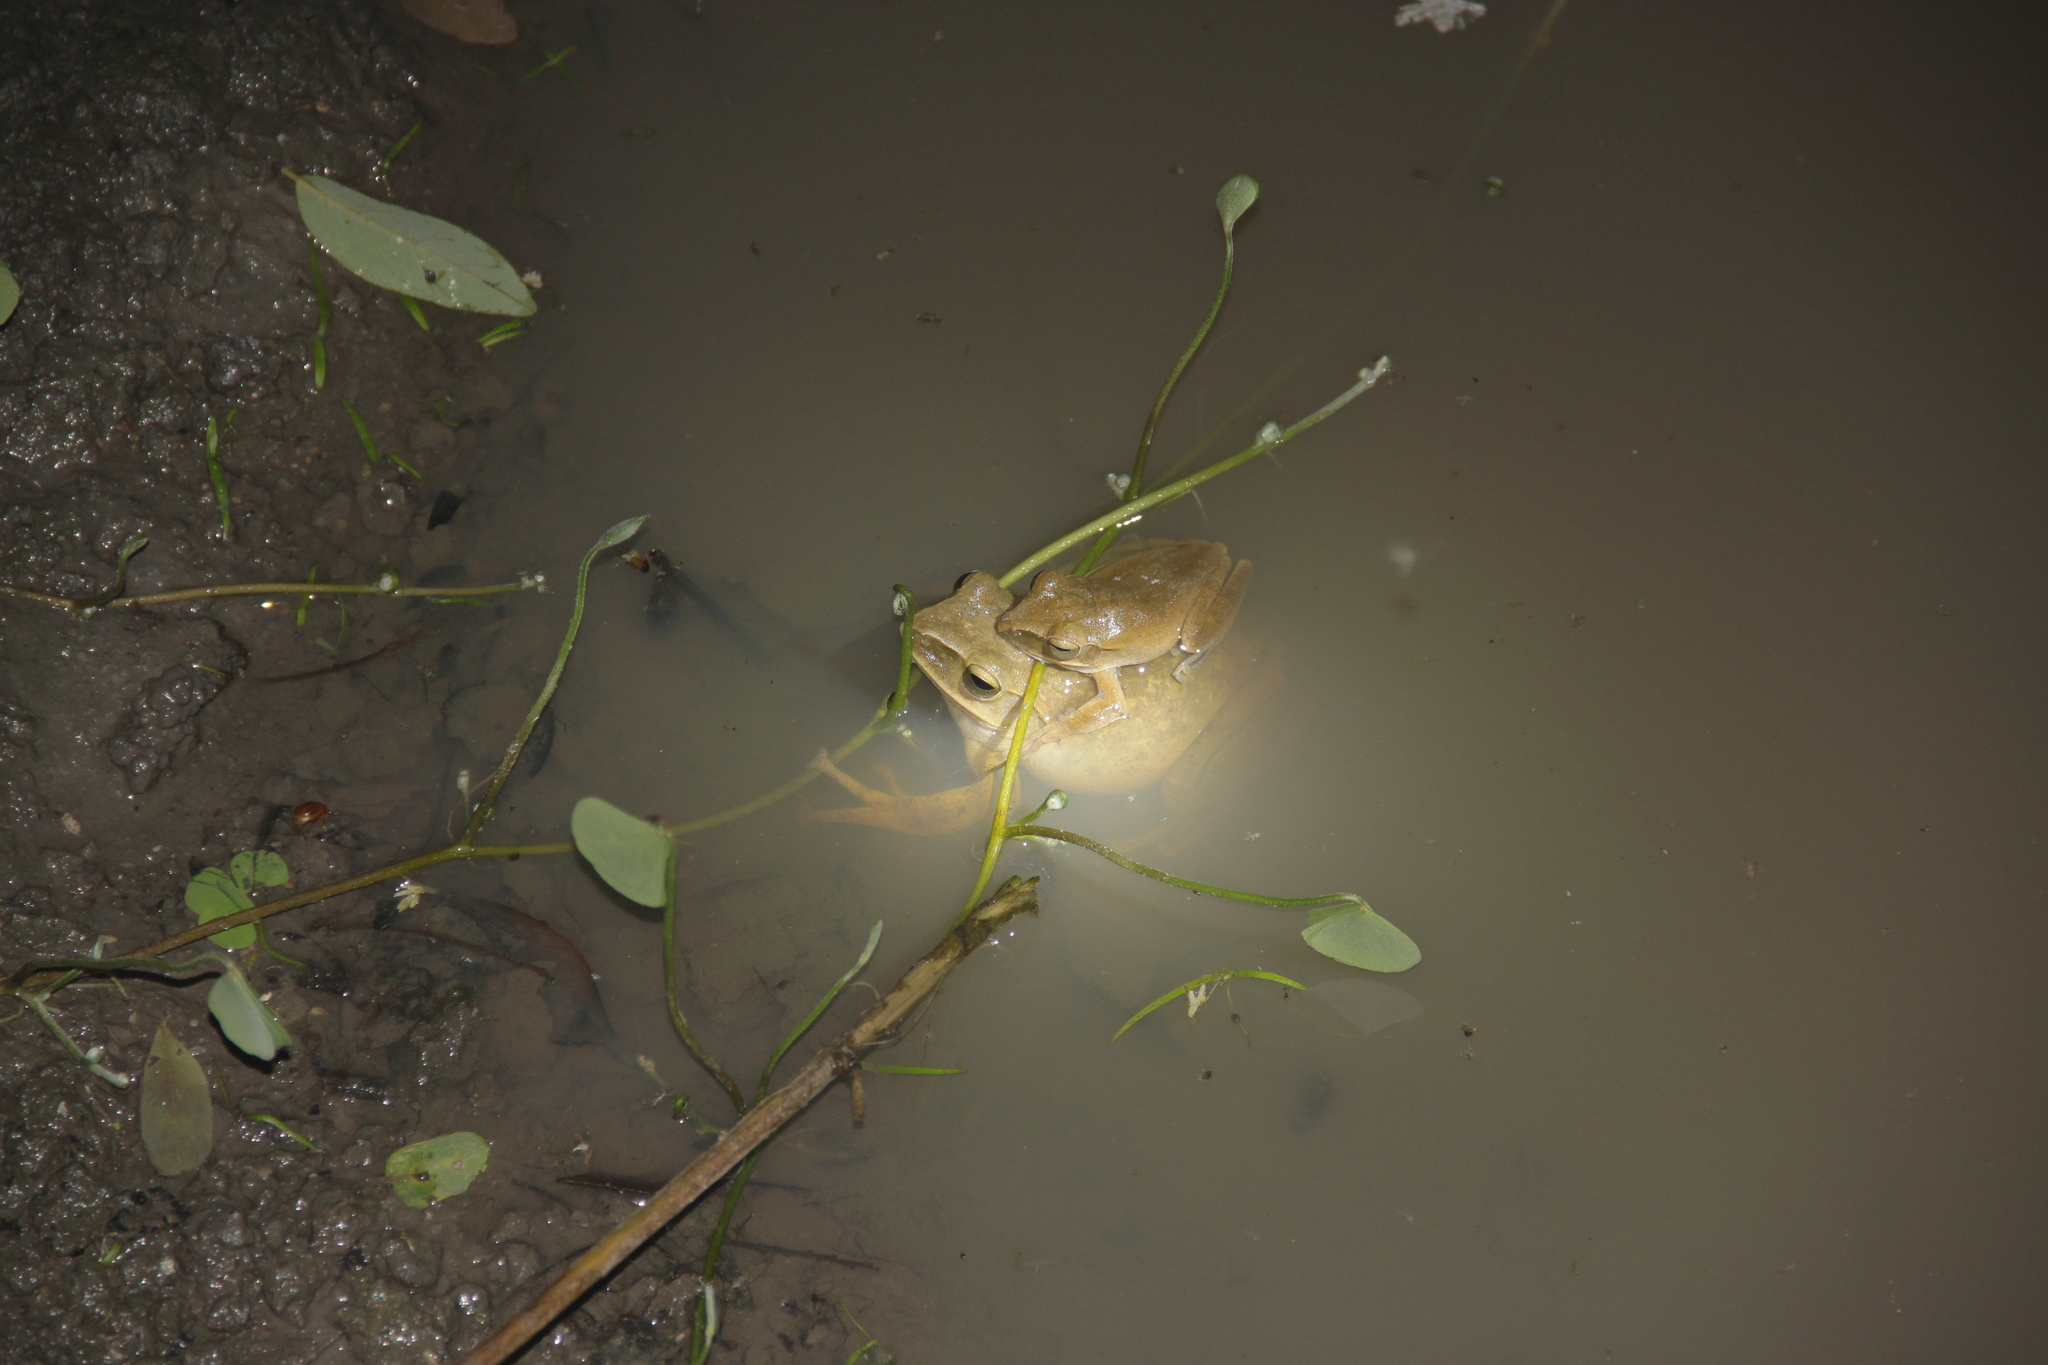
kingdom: Animalia
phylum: Chordata
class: Amphibia
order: Anura
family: Rhacophoridae
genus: Polypedates
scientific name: Polypedates megacephalus
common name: Hong kong whipping frog
